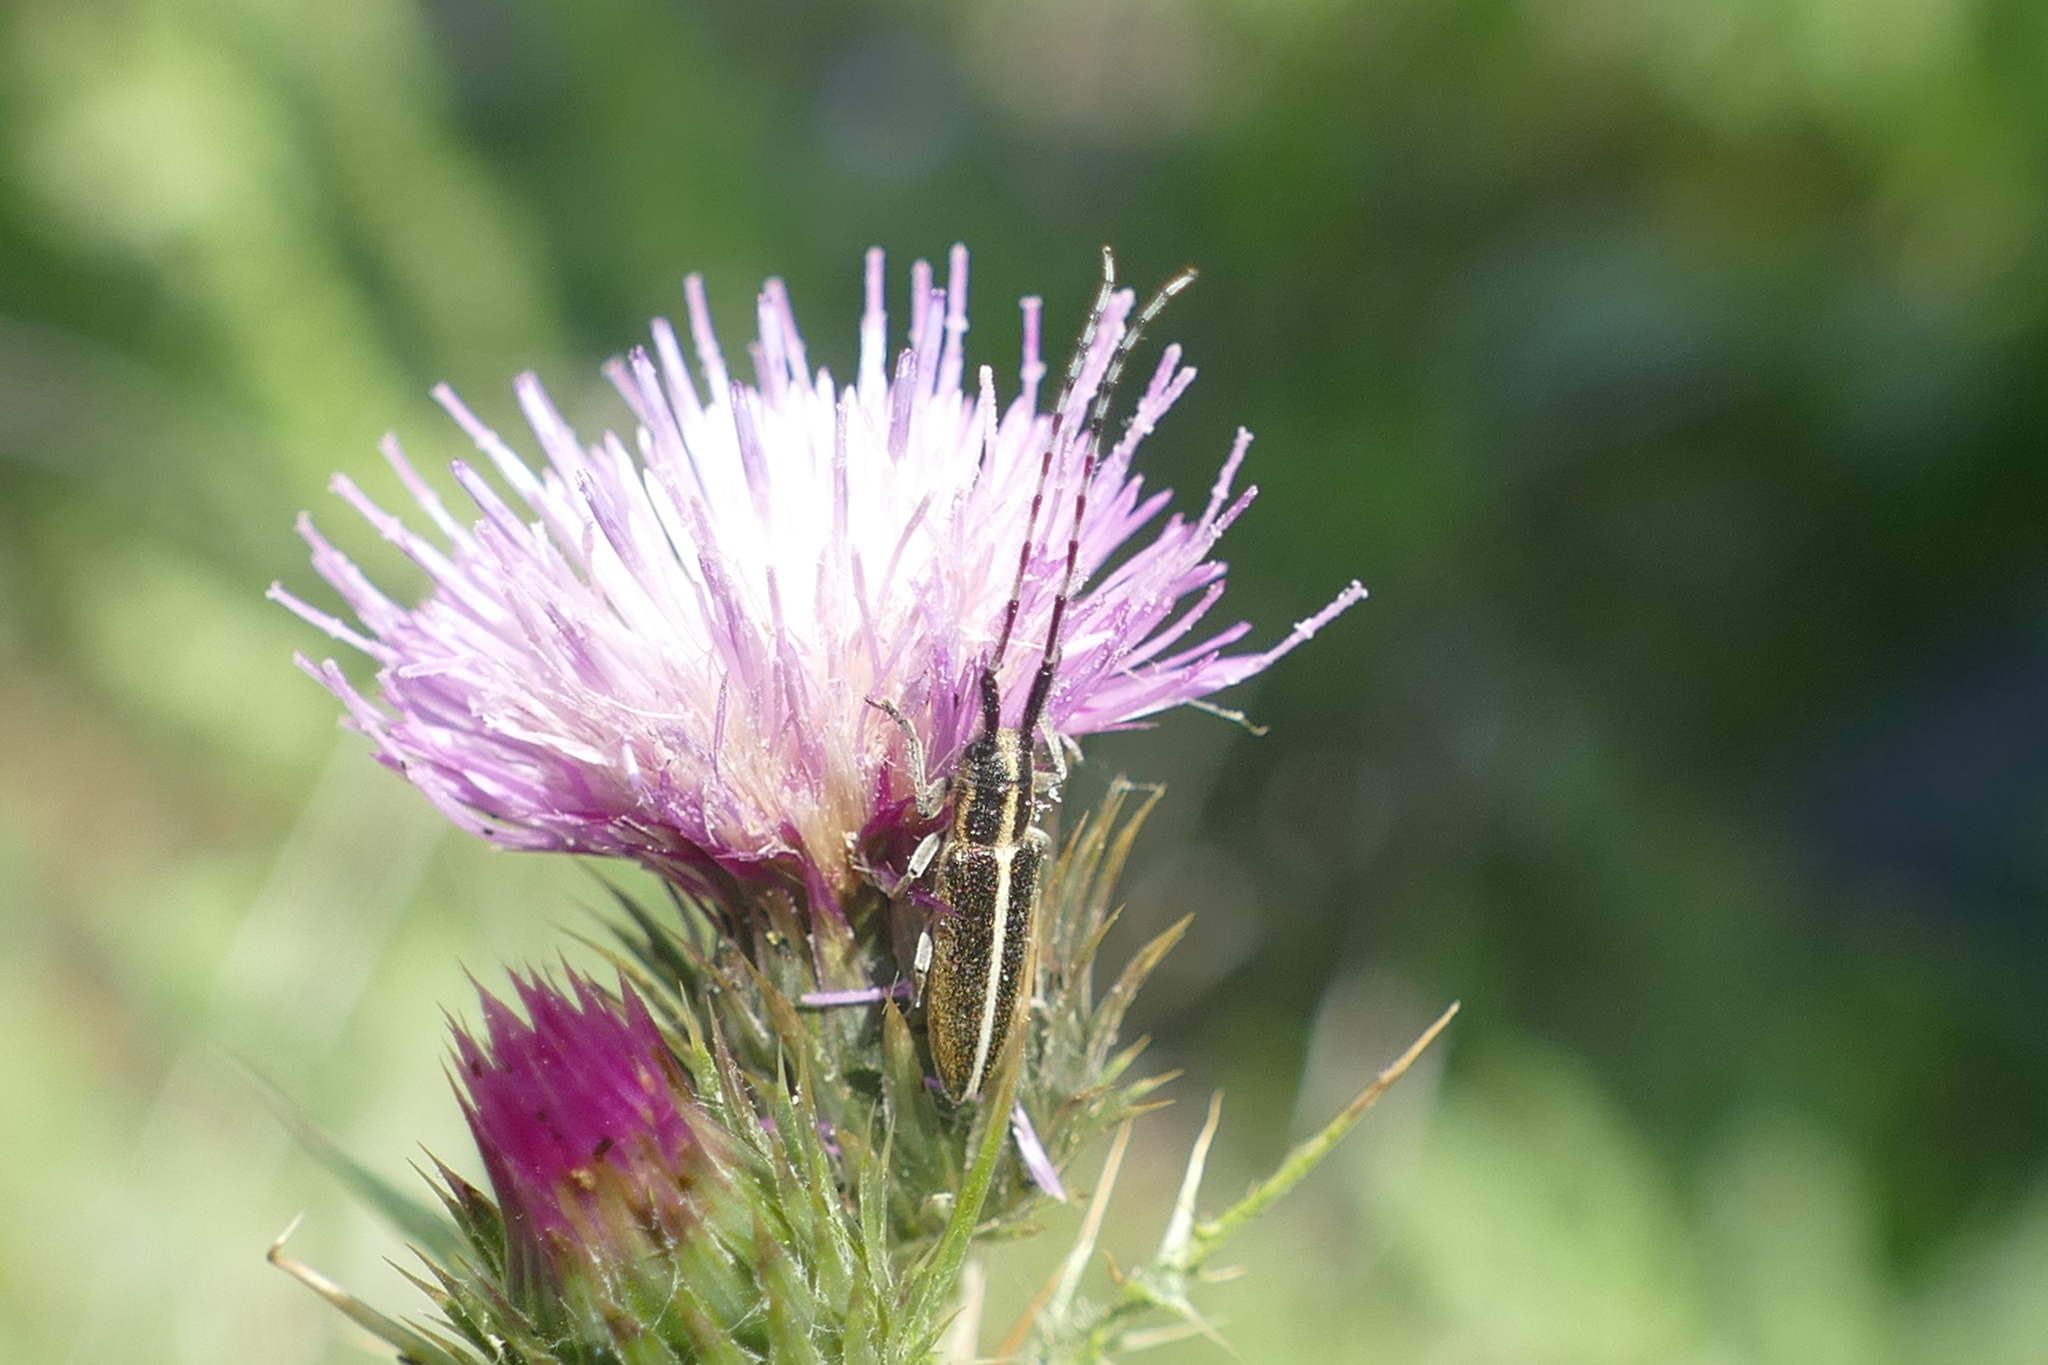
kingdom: Animalia
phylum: Arthropoda
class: Insecta
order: Coleoptera
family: Cerambycidae
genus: Agapanthia
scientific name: Agapanthia cardui
